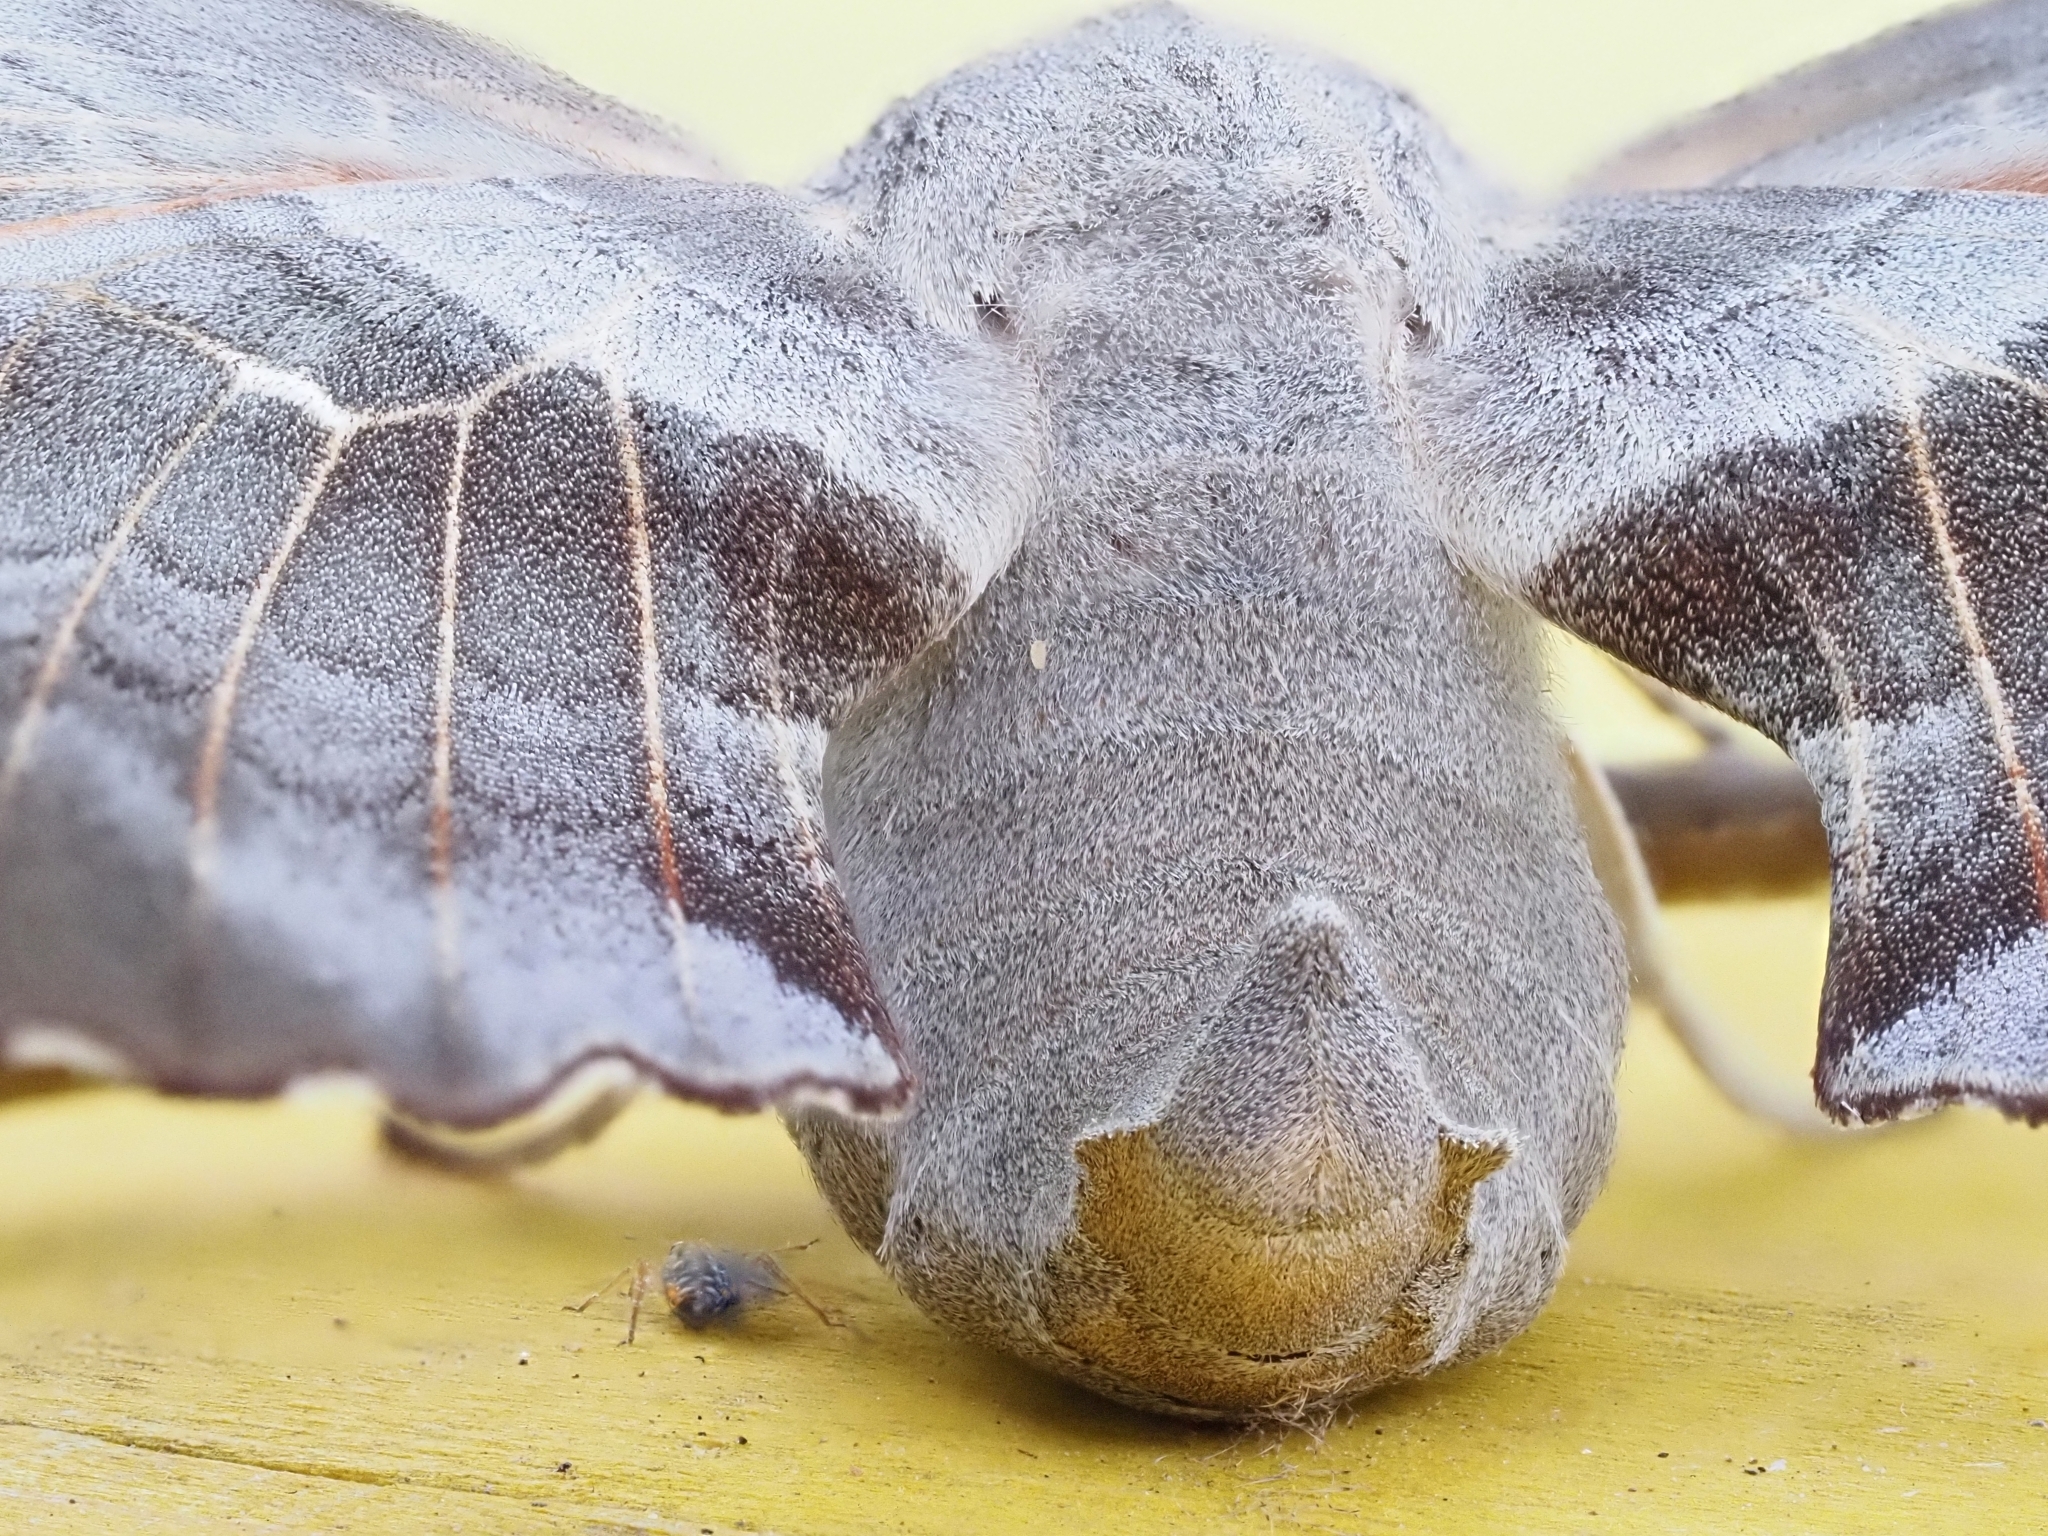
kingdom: Animalia
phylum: Arthropoda
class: Insecta
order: Lepidoptera
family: Sphingidae
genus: Laothoe
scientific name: Laothoe populi
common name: Poplar hawk-moth
